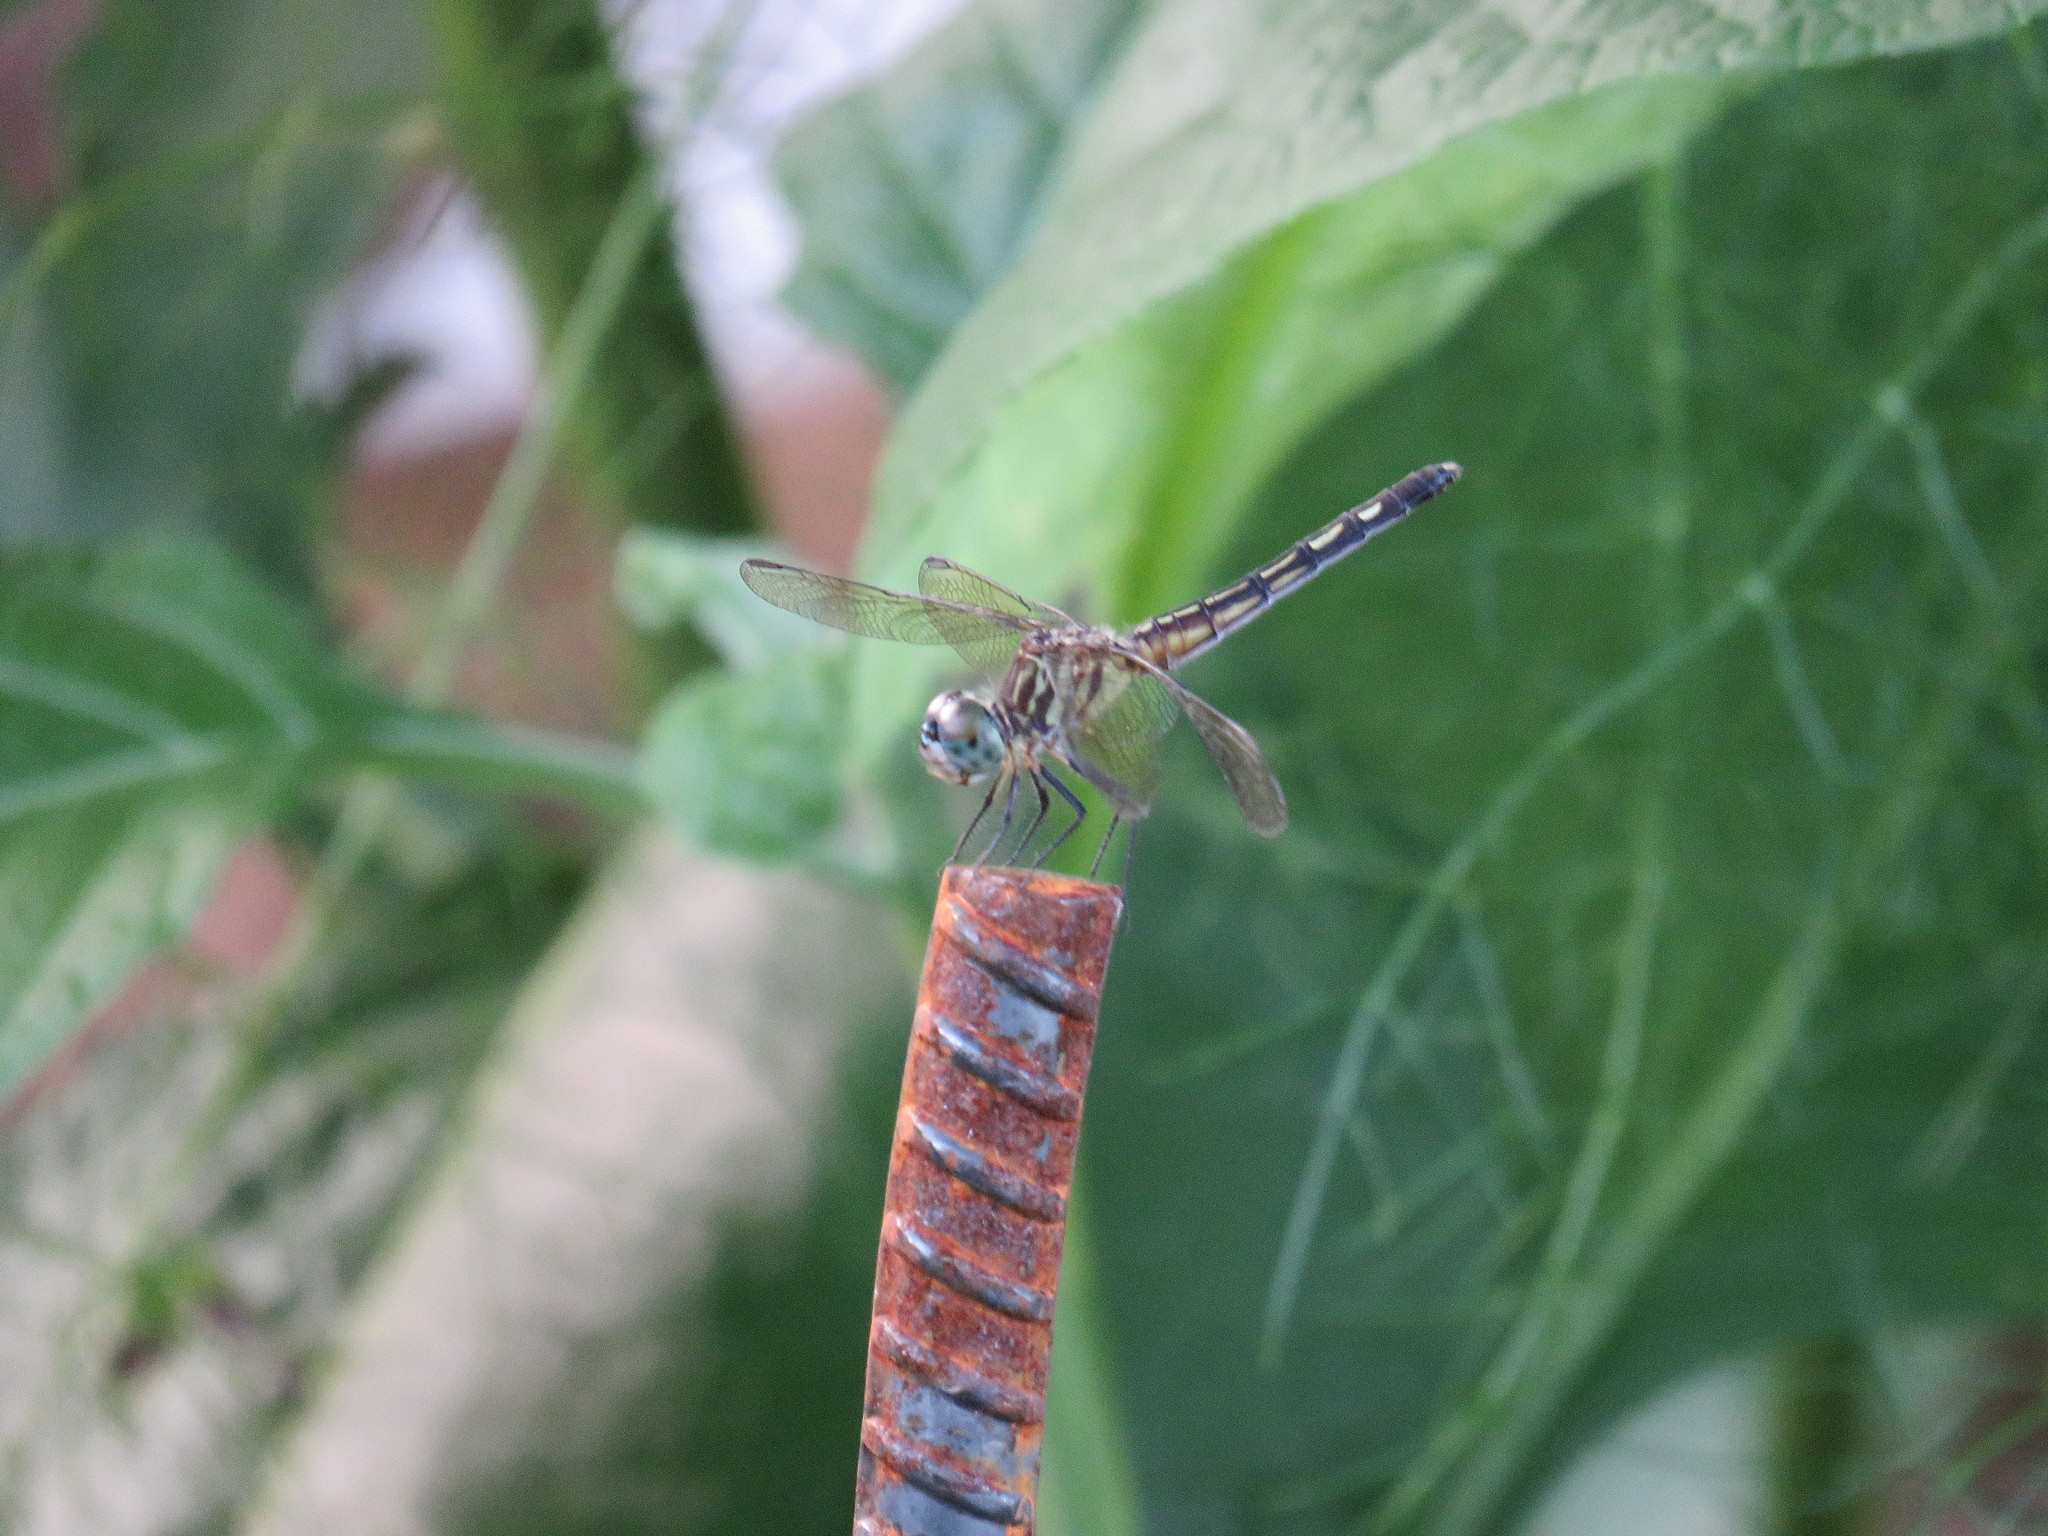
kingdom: Animalia
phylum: Arthropoda
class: Insecta
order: Odonata
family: Libellulidae
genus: Pachydiplax
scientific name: Pachydiplax longipennis
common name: Blue dasher
